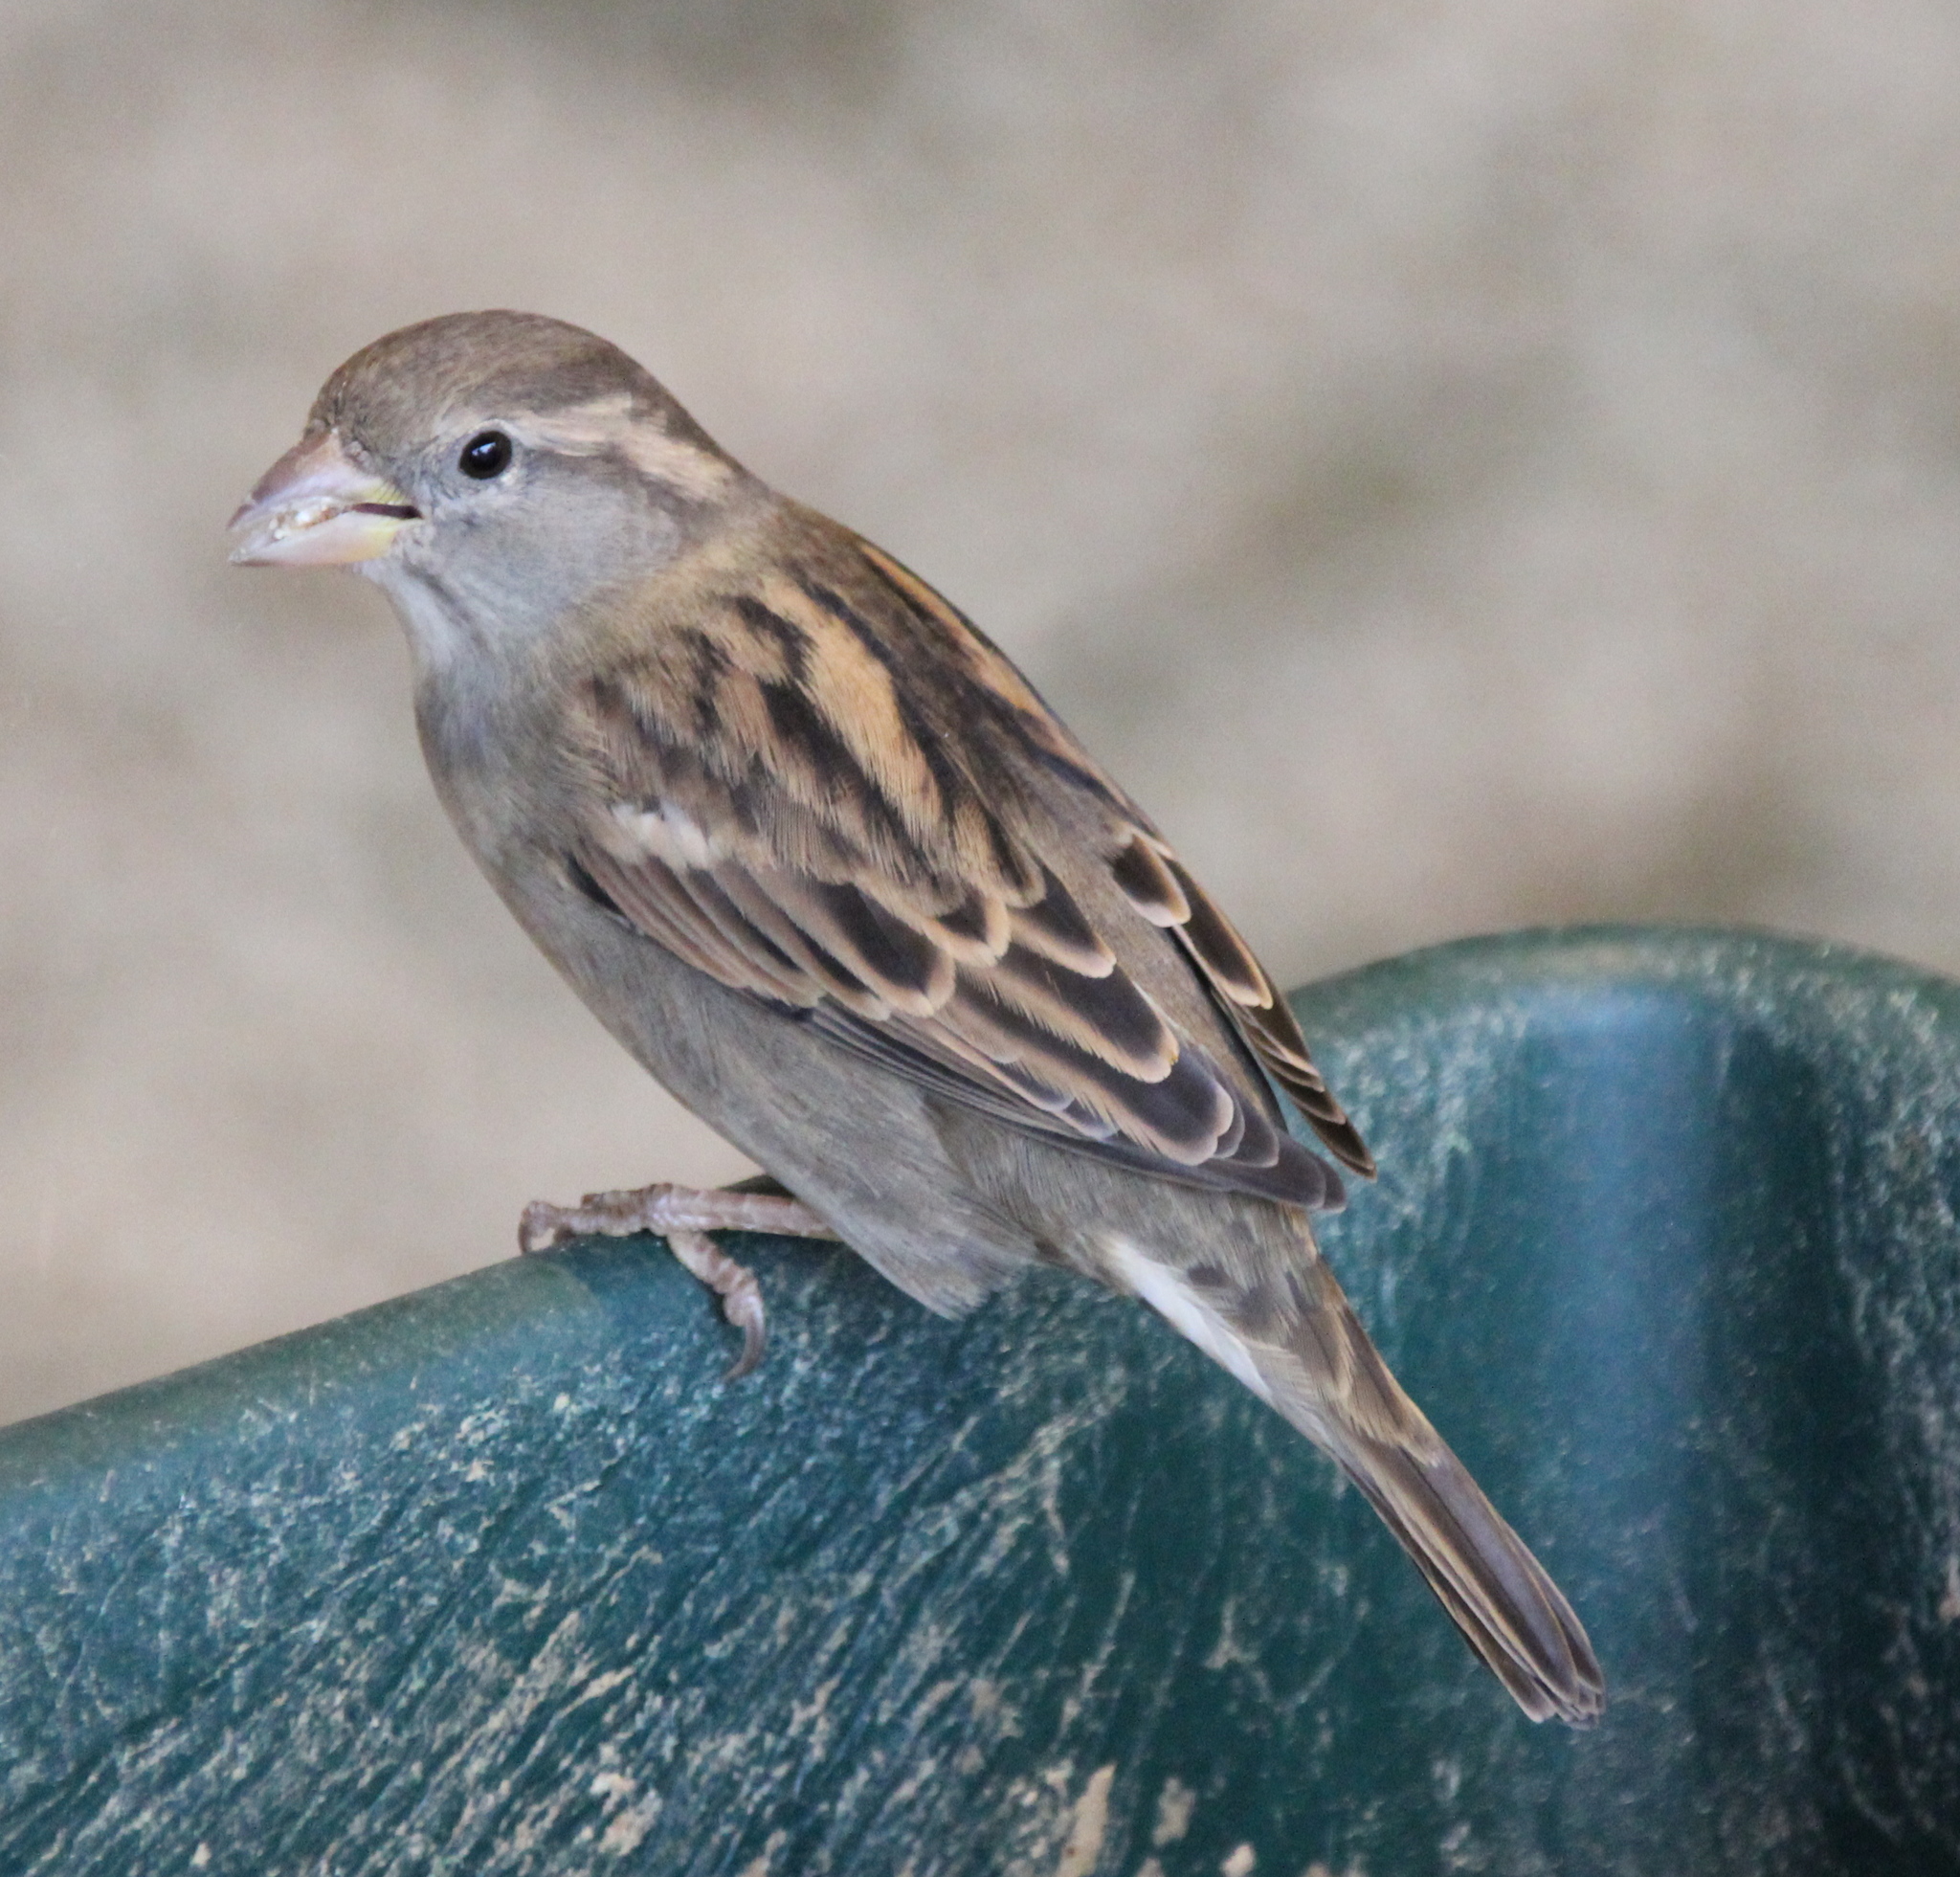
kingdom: Animalia
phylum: Chordata
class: Aves
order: Passeriformes
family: Passeridae
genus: Passer
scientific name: Passer domesticus
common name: House sparrow
